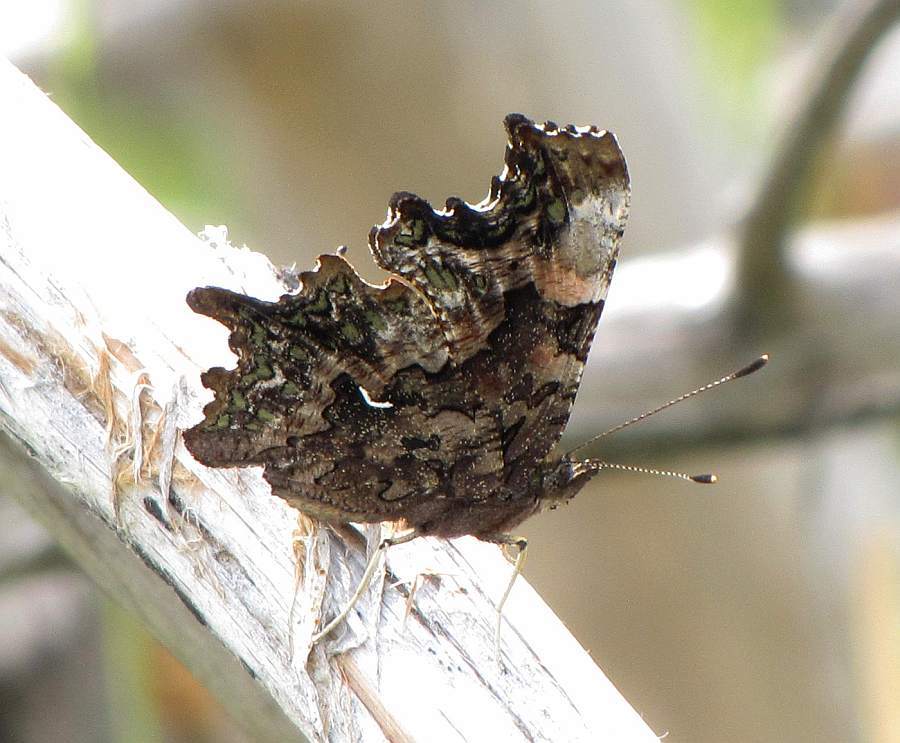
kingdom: Animalia
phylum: Arthropoda
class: Insecta
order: Lepidoptera
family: Nymphalidae
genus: Polygonia
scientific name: Polygonia faunus
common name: Green comma
